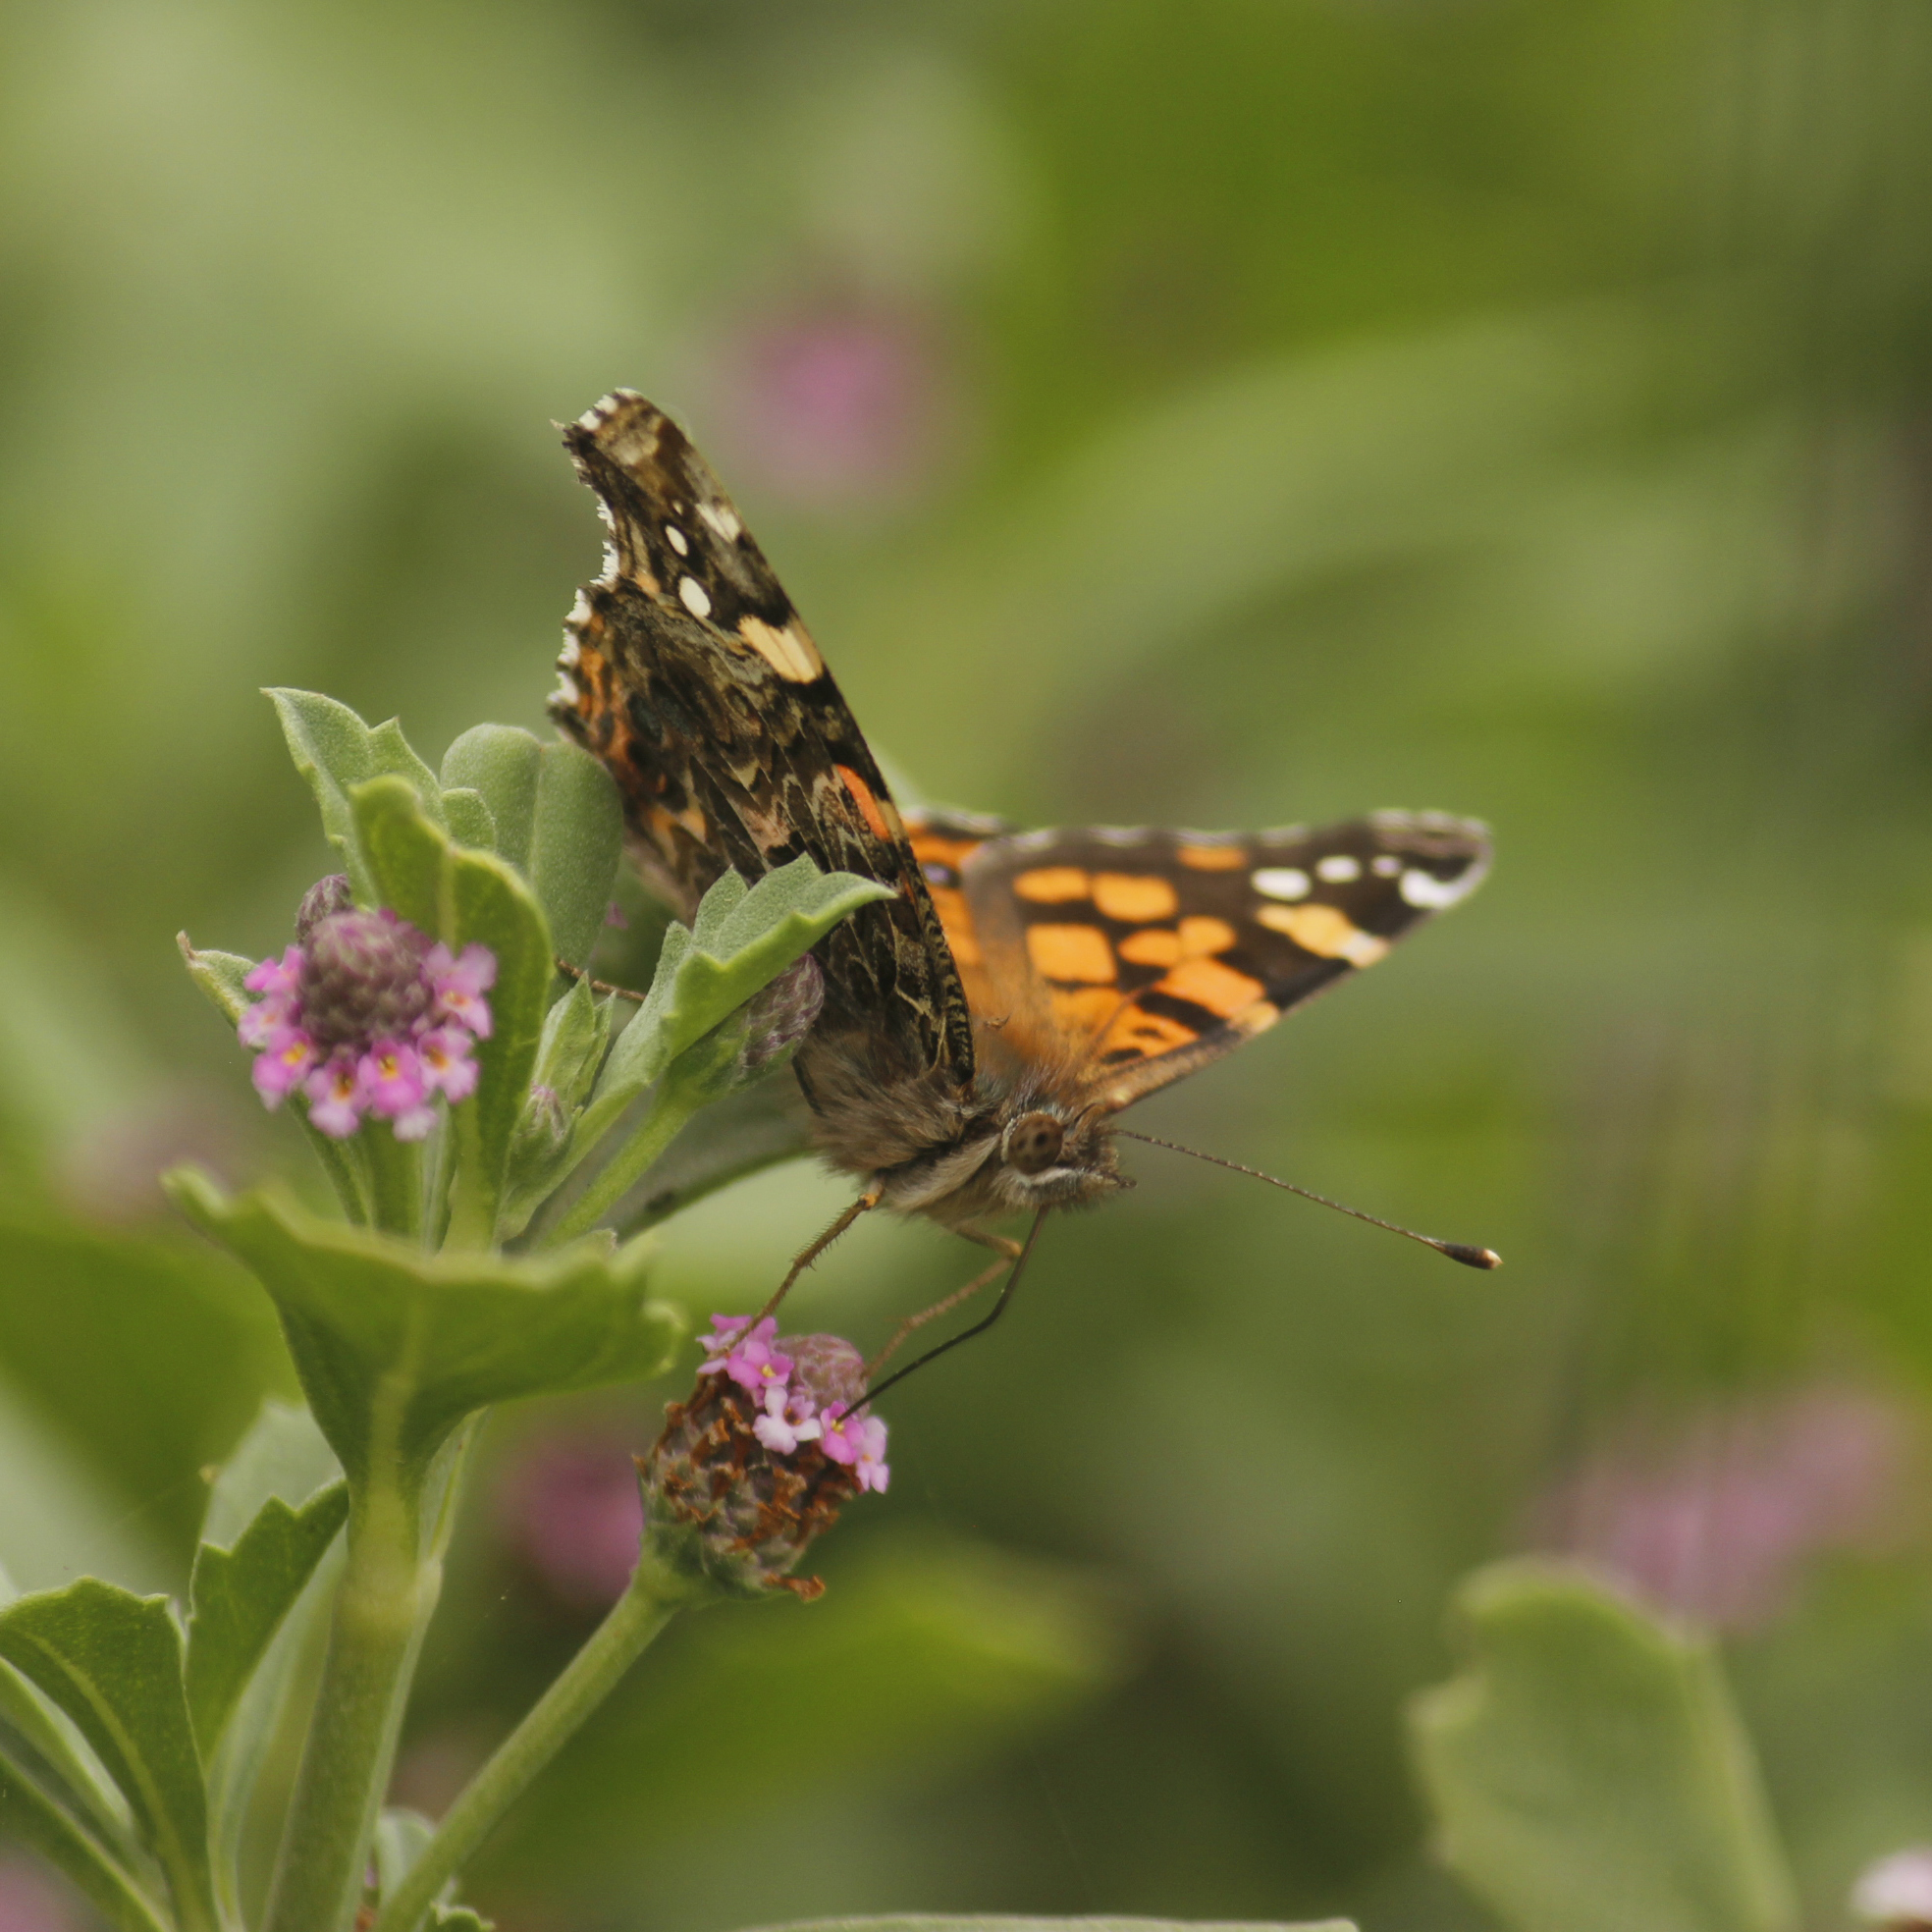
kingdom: Animalia
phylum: Arthropoda
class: Insecta
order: Lepidoptera
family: Nymphalidae
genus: Vanessa
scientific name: Vanessa carye
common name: Subtropical lady
